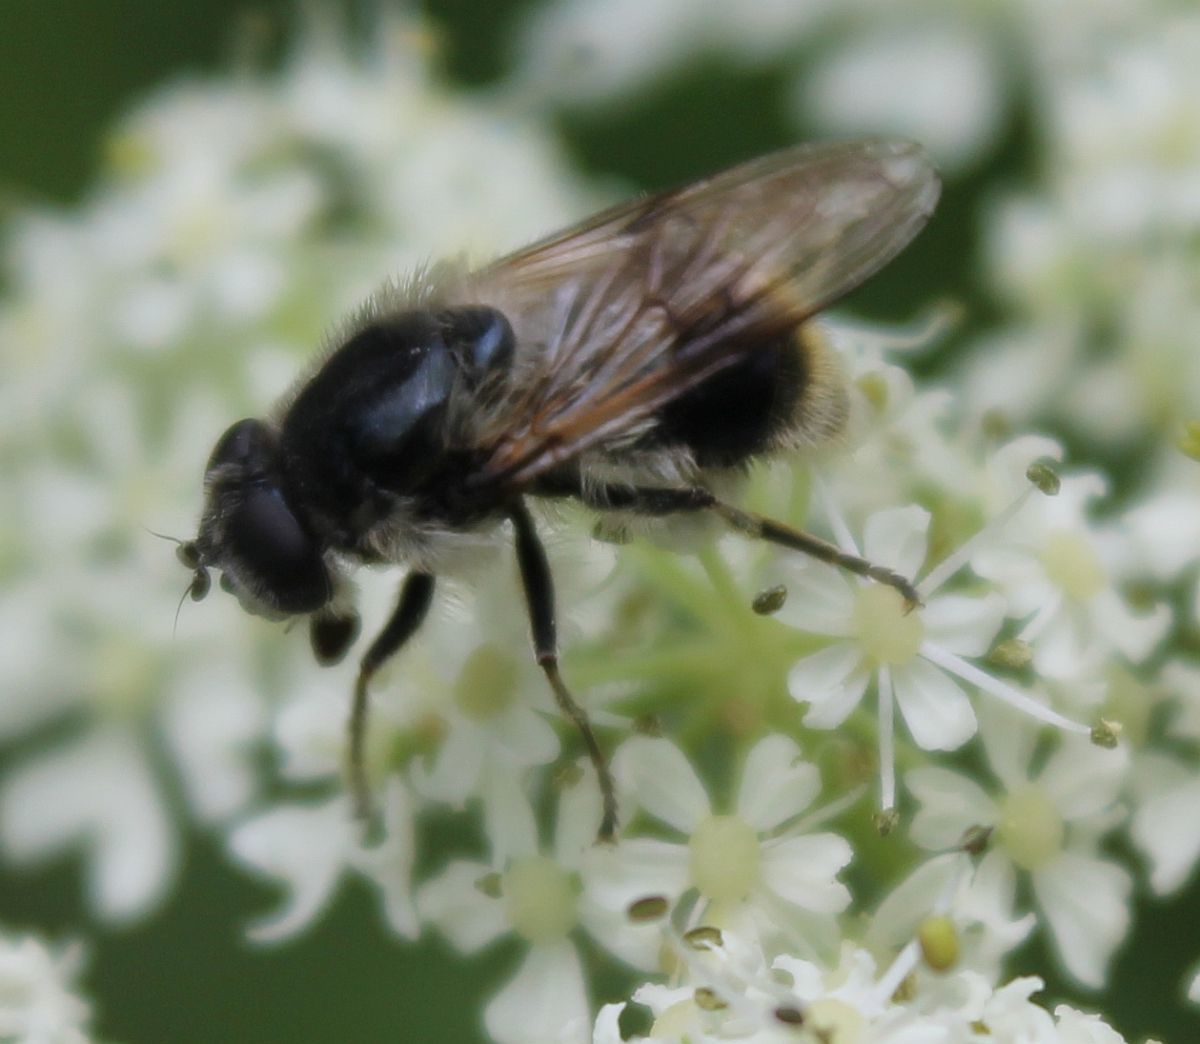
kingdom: Animalia
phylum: Arthropoda
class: Insecta
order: Diptera
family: Syrphidae
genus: Cheilosia
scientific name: Cheilosia illustrata
